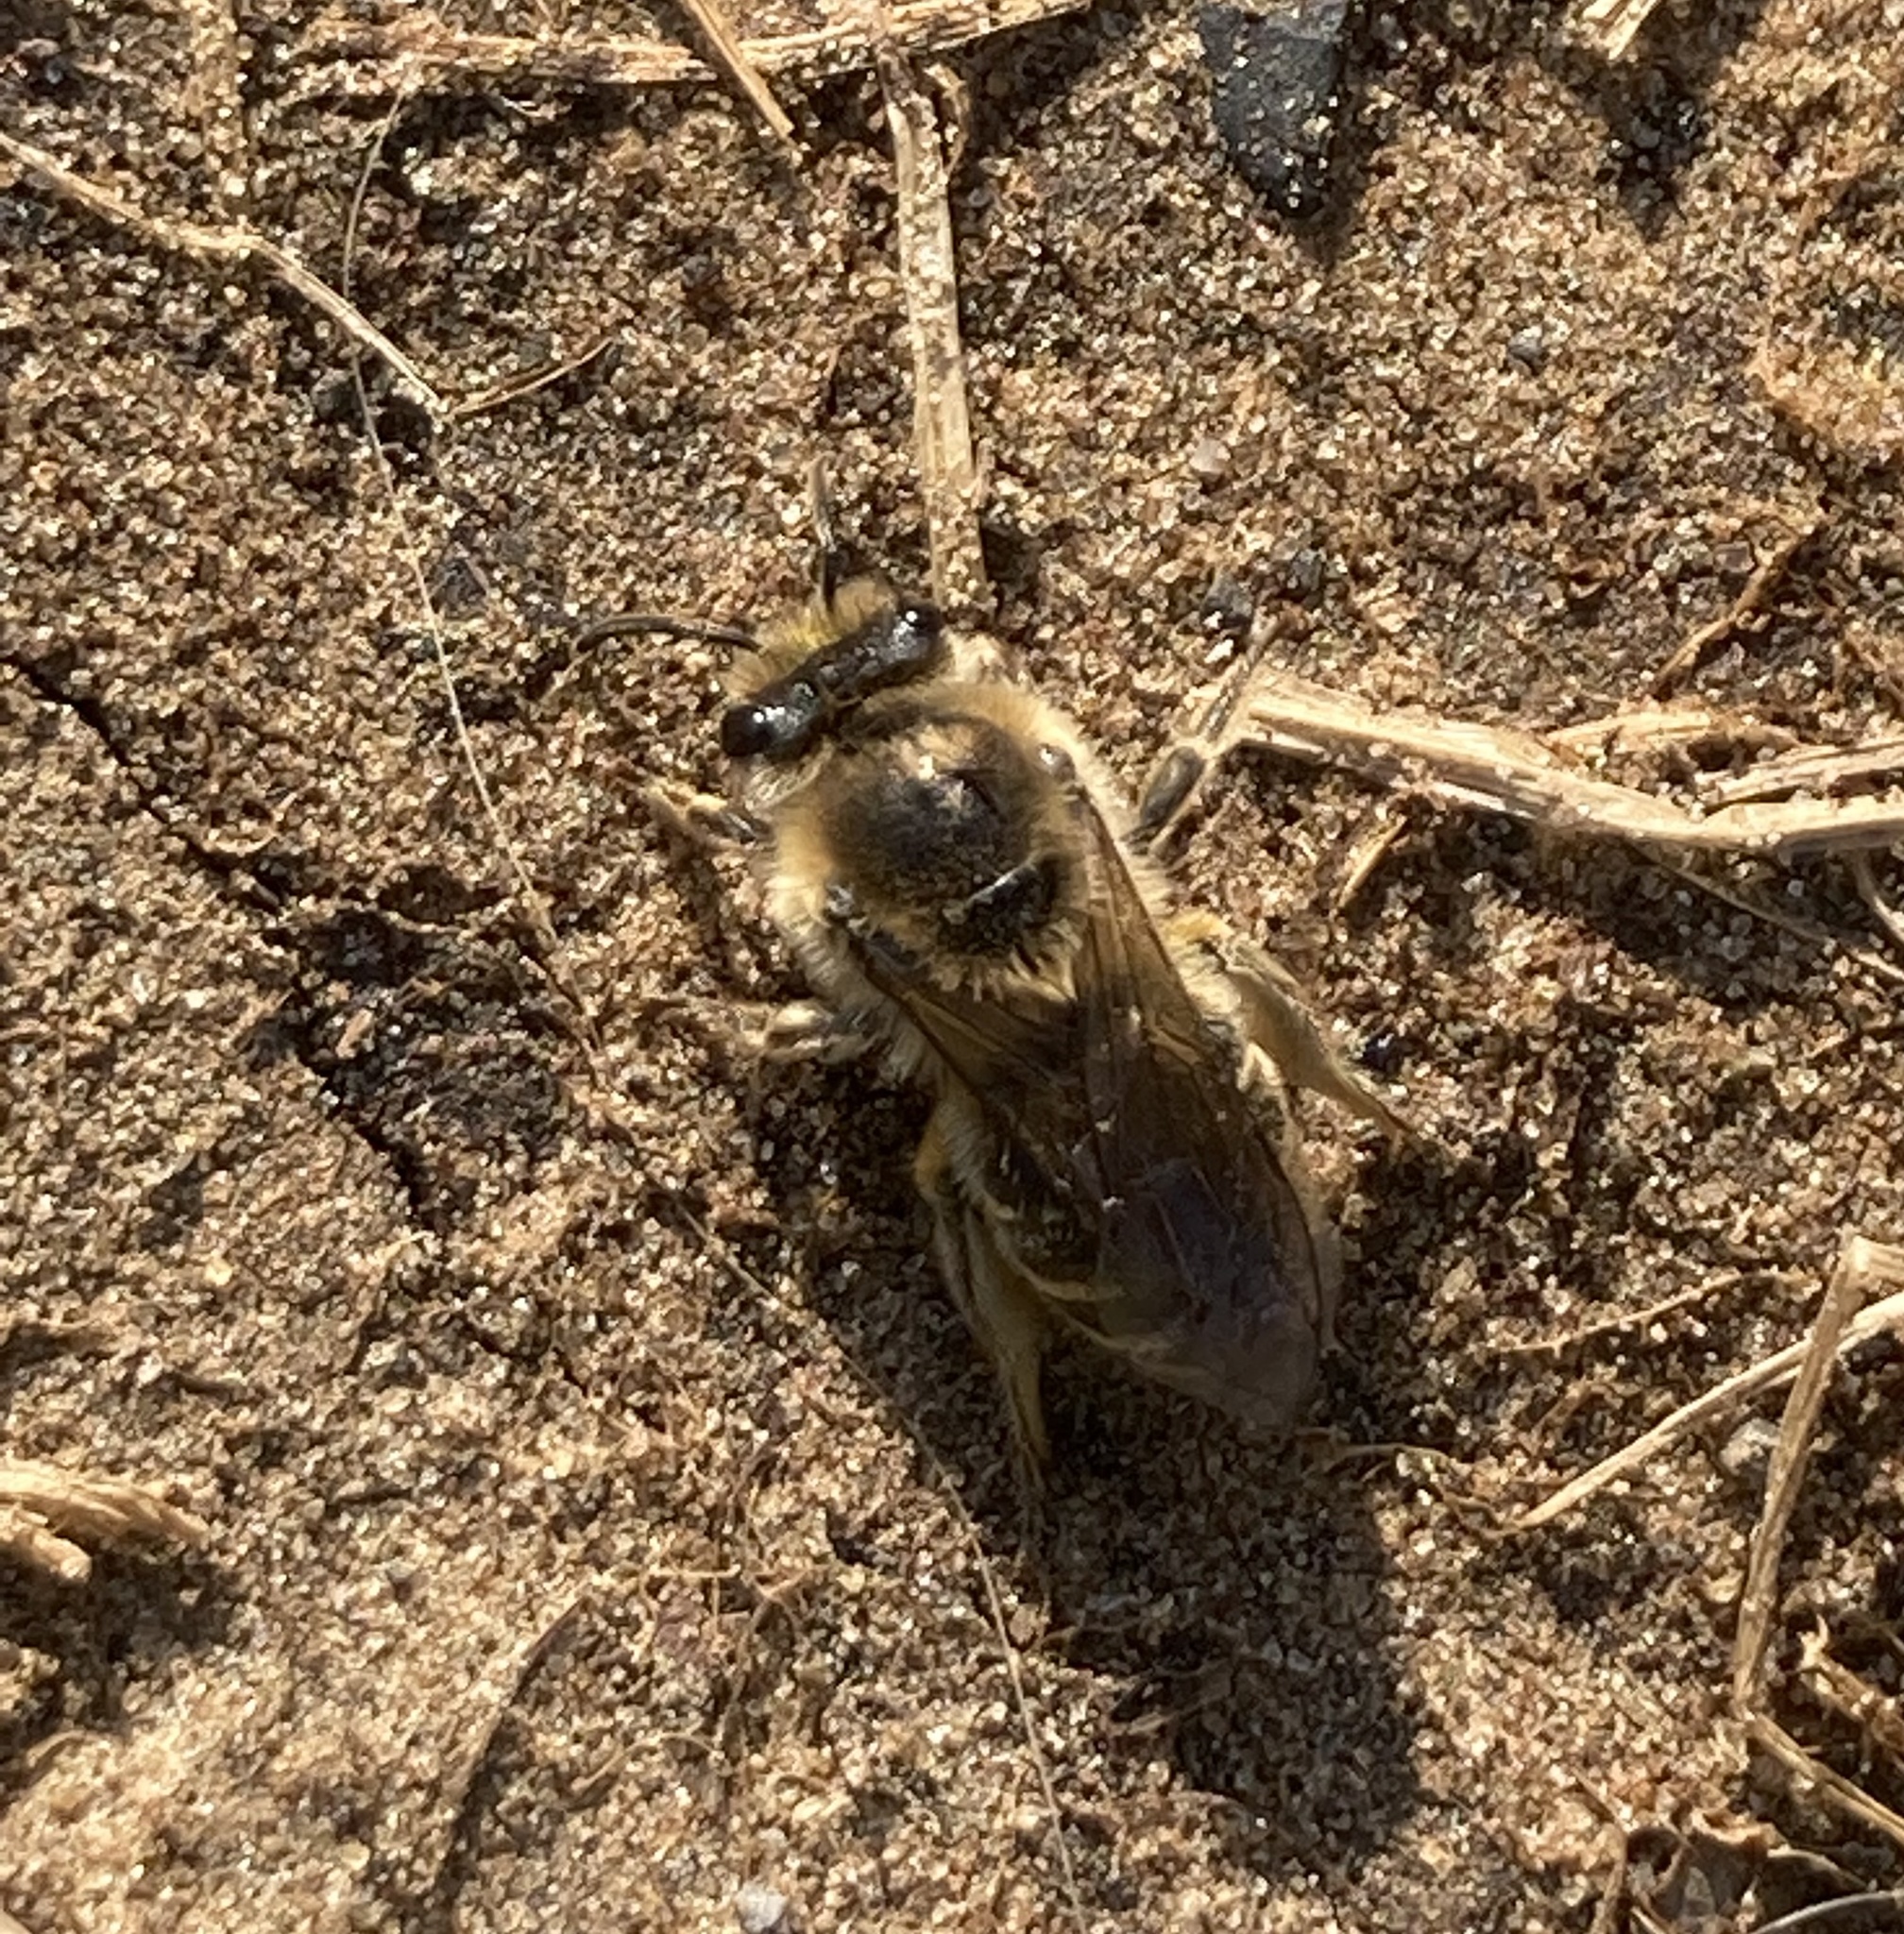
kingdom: Animalia
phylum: Arthropoda
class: Insecta
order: Hymenoptera
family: Colletidae
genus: Colletes
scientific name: Colletes inaequalis
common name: Unequal cellophane bee
